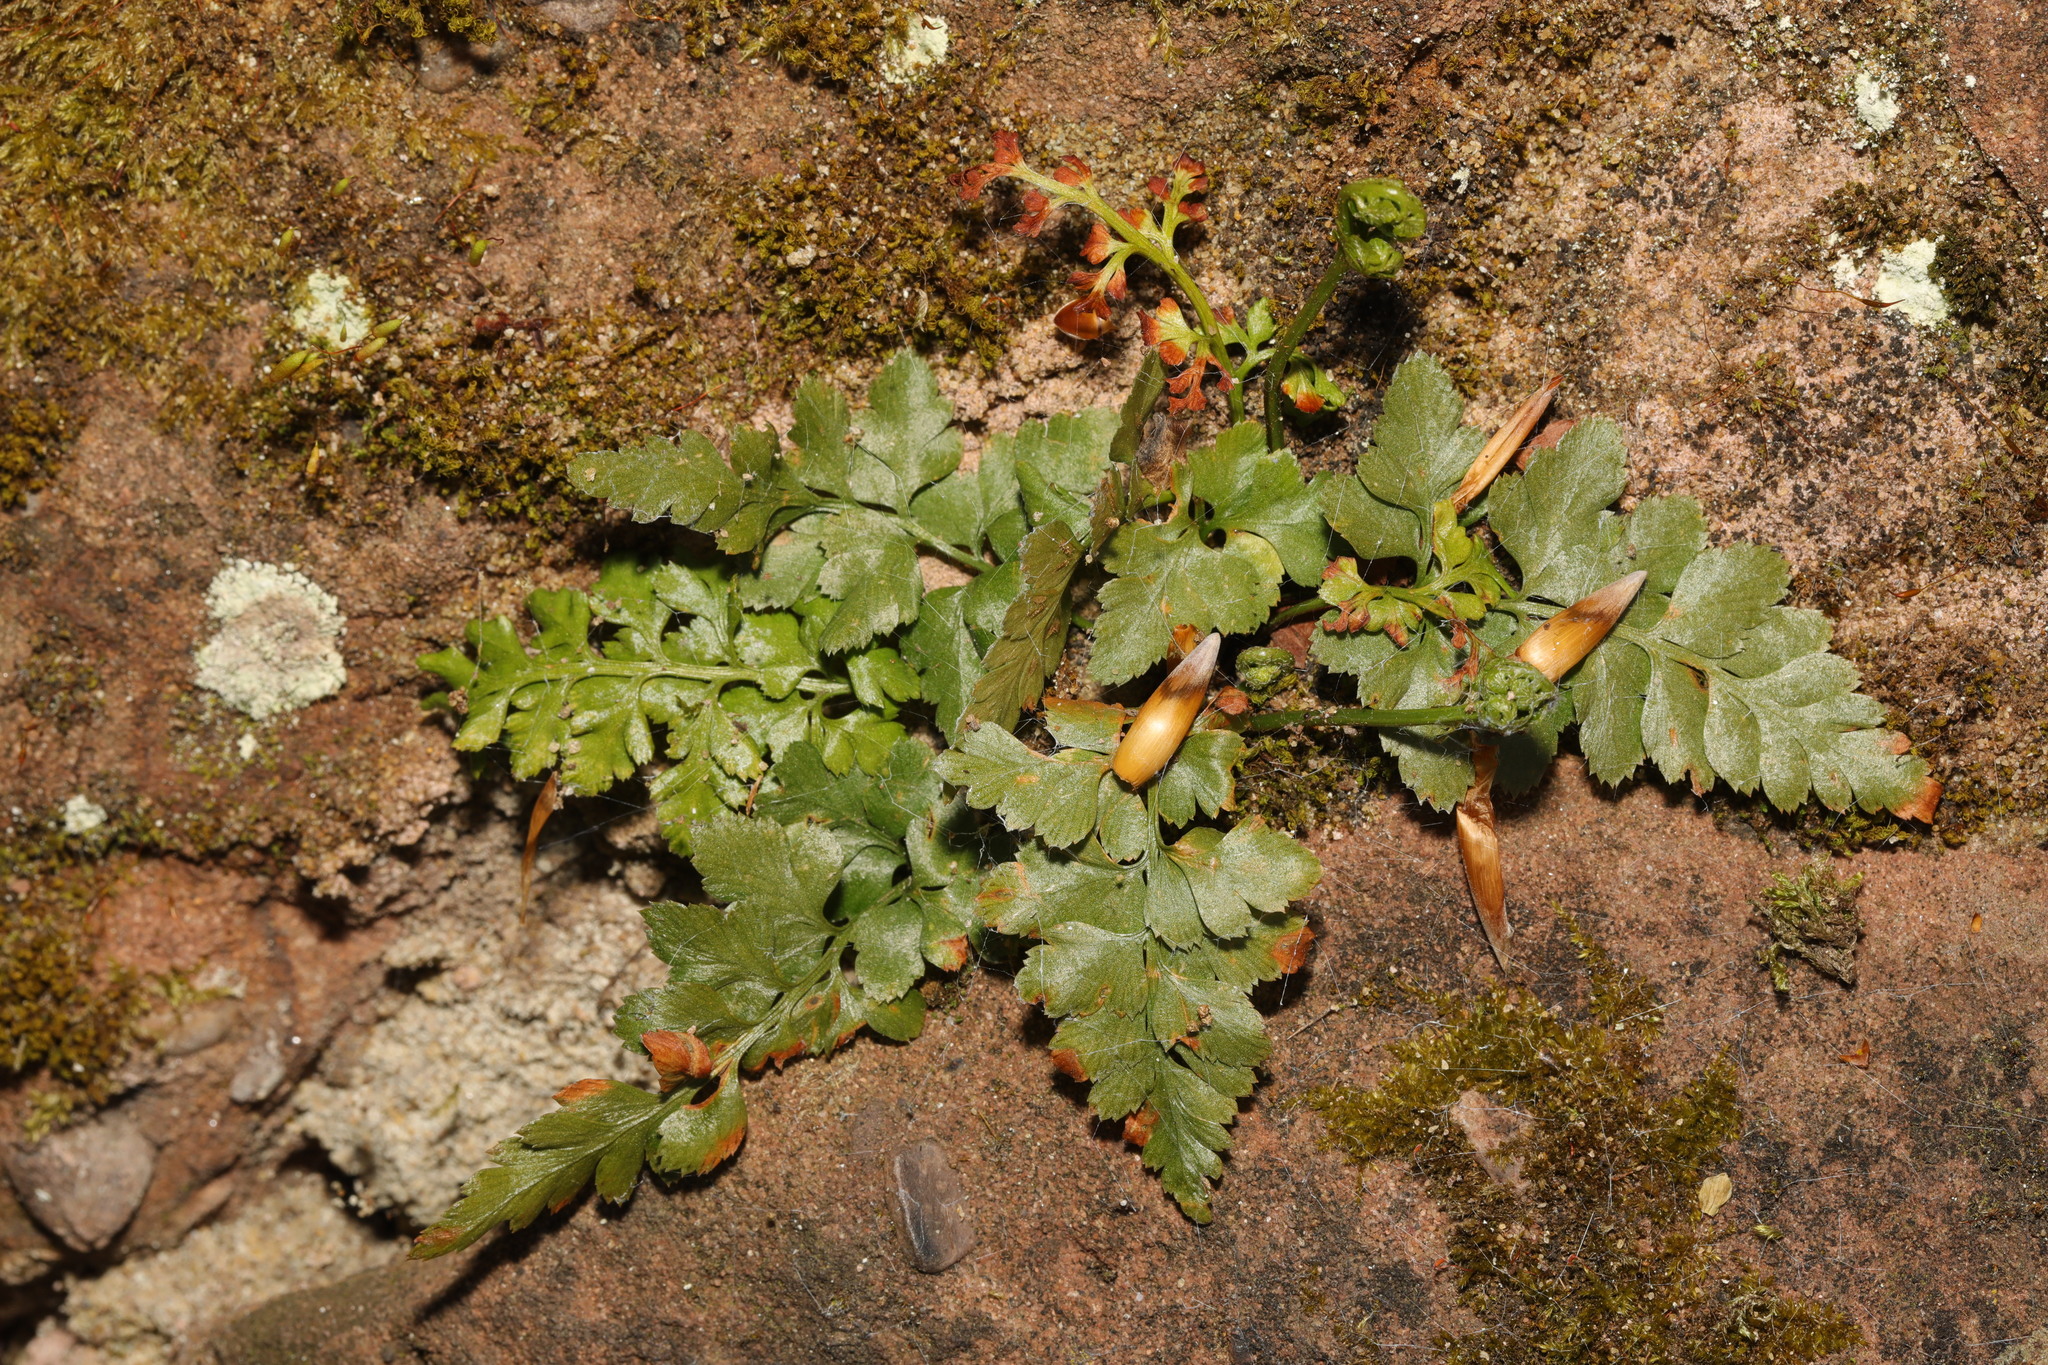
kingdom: Plantae
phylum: Tracheophyta
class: Polypodiopsida
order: Polypodiales
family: Aspleniaceae
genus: Asplenium
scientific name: Asplenium adiantum-nigrum
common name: Black spleenwort
